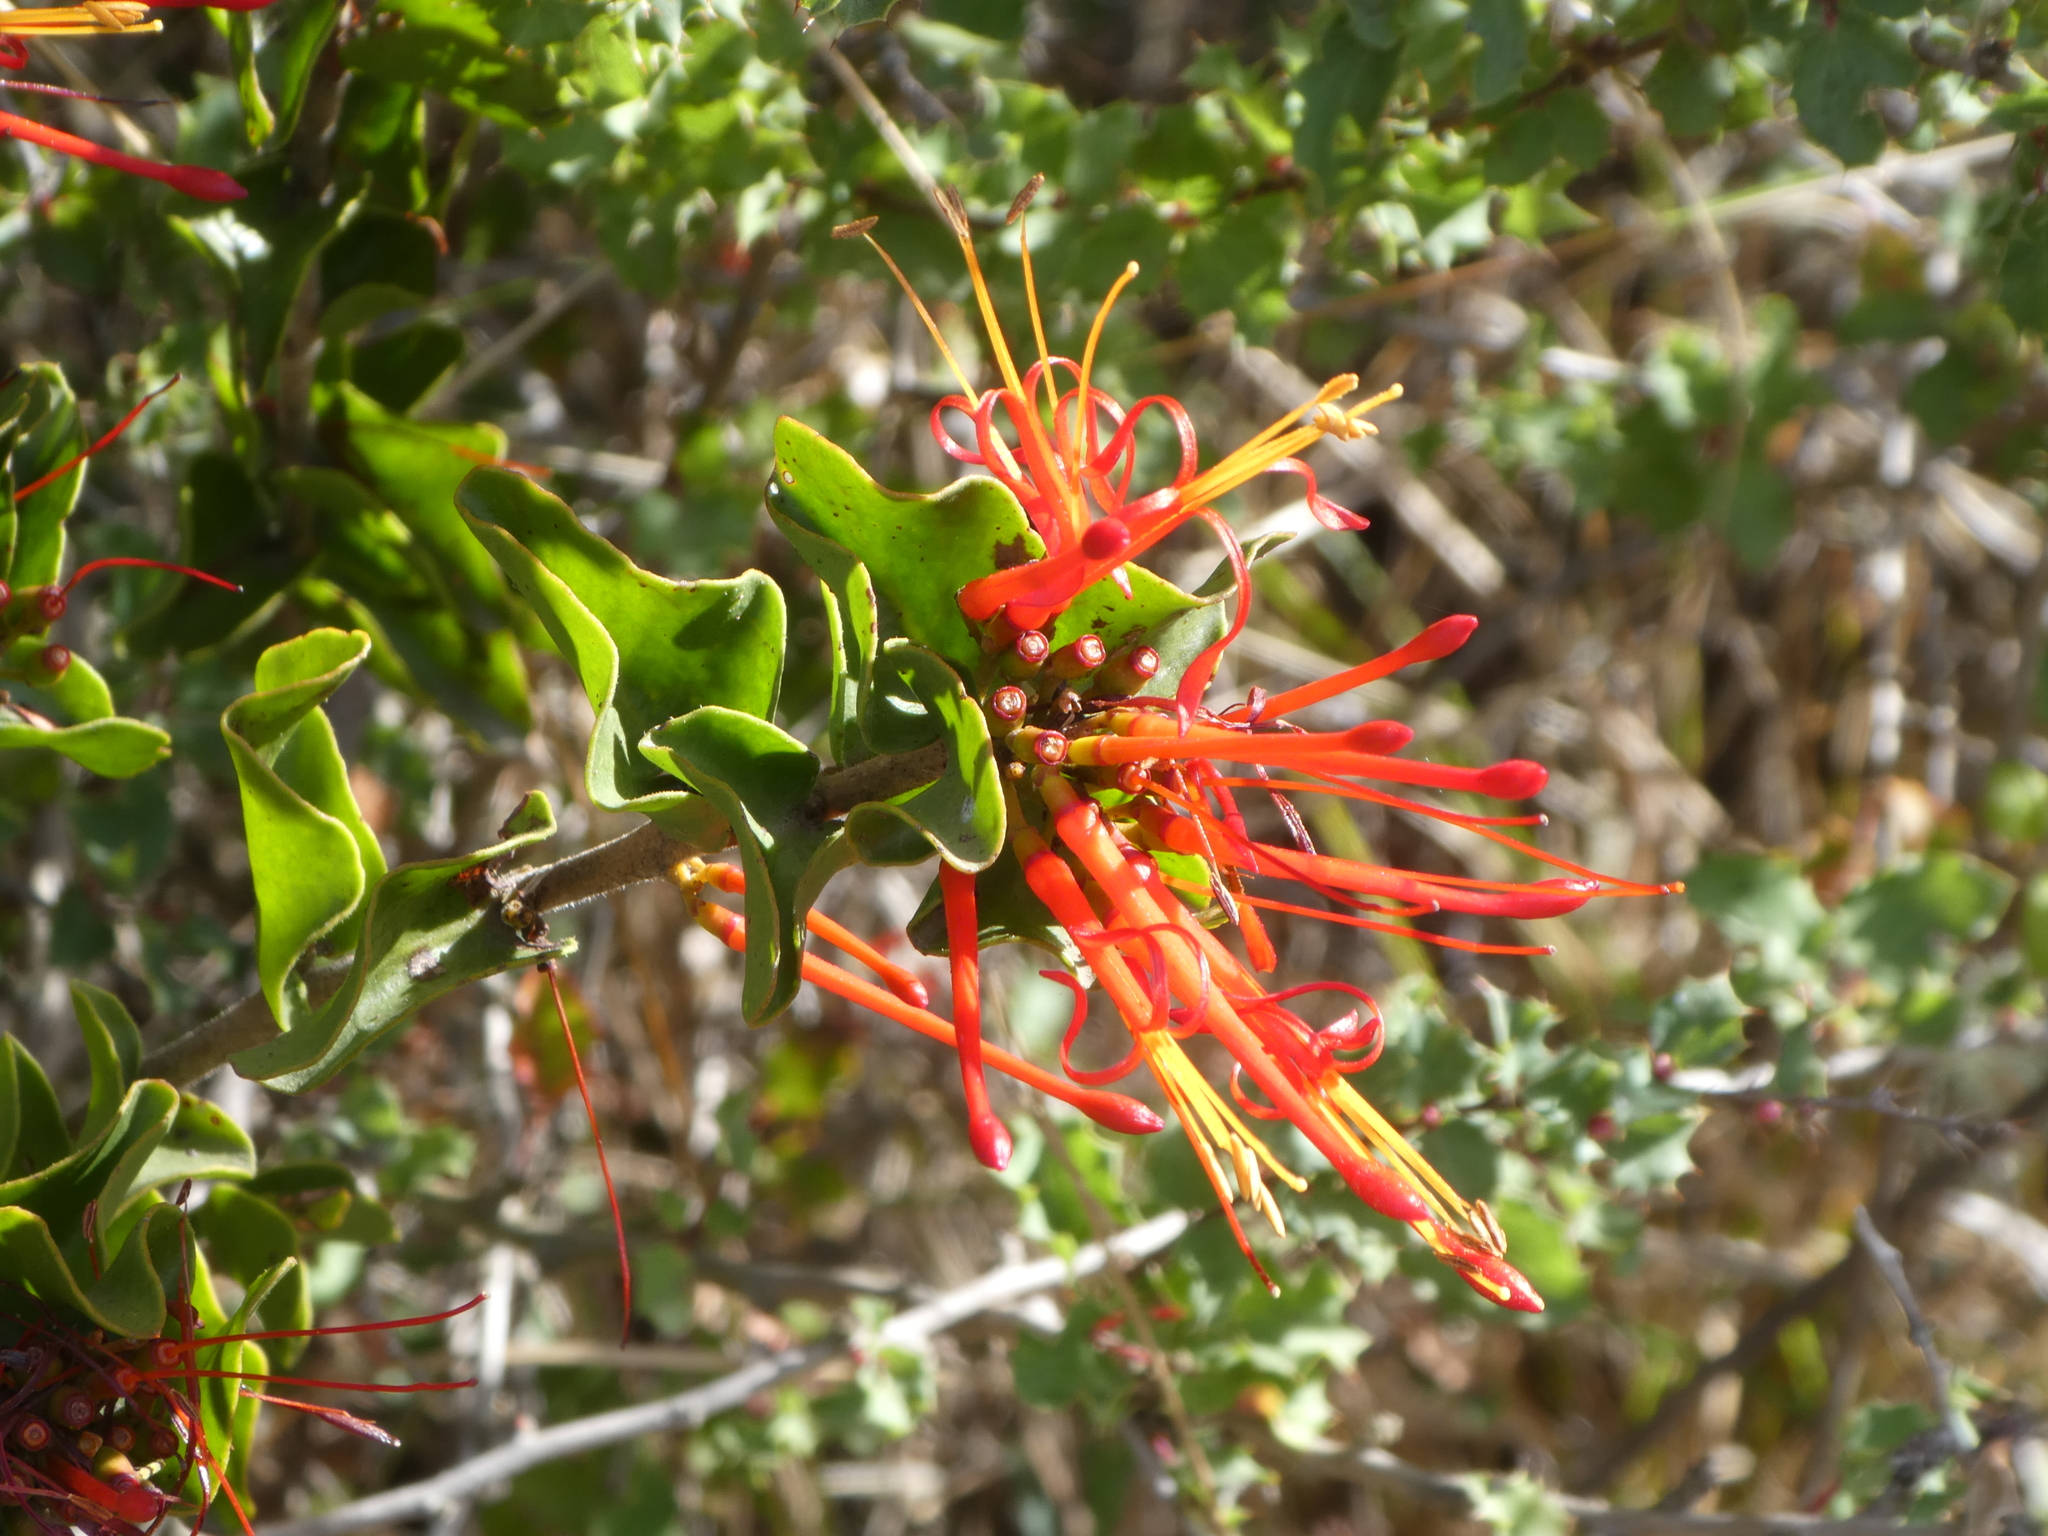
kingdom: Plantae
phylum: Tracheophyta
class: Magnoliopsida
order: Santalales
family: Loranthaceae
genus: Tristerix
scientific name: Tristerix corymbosus
